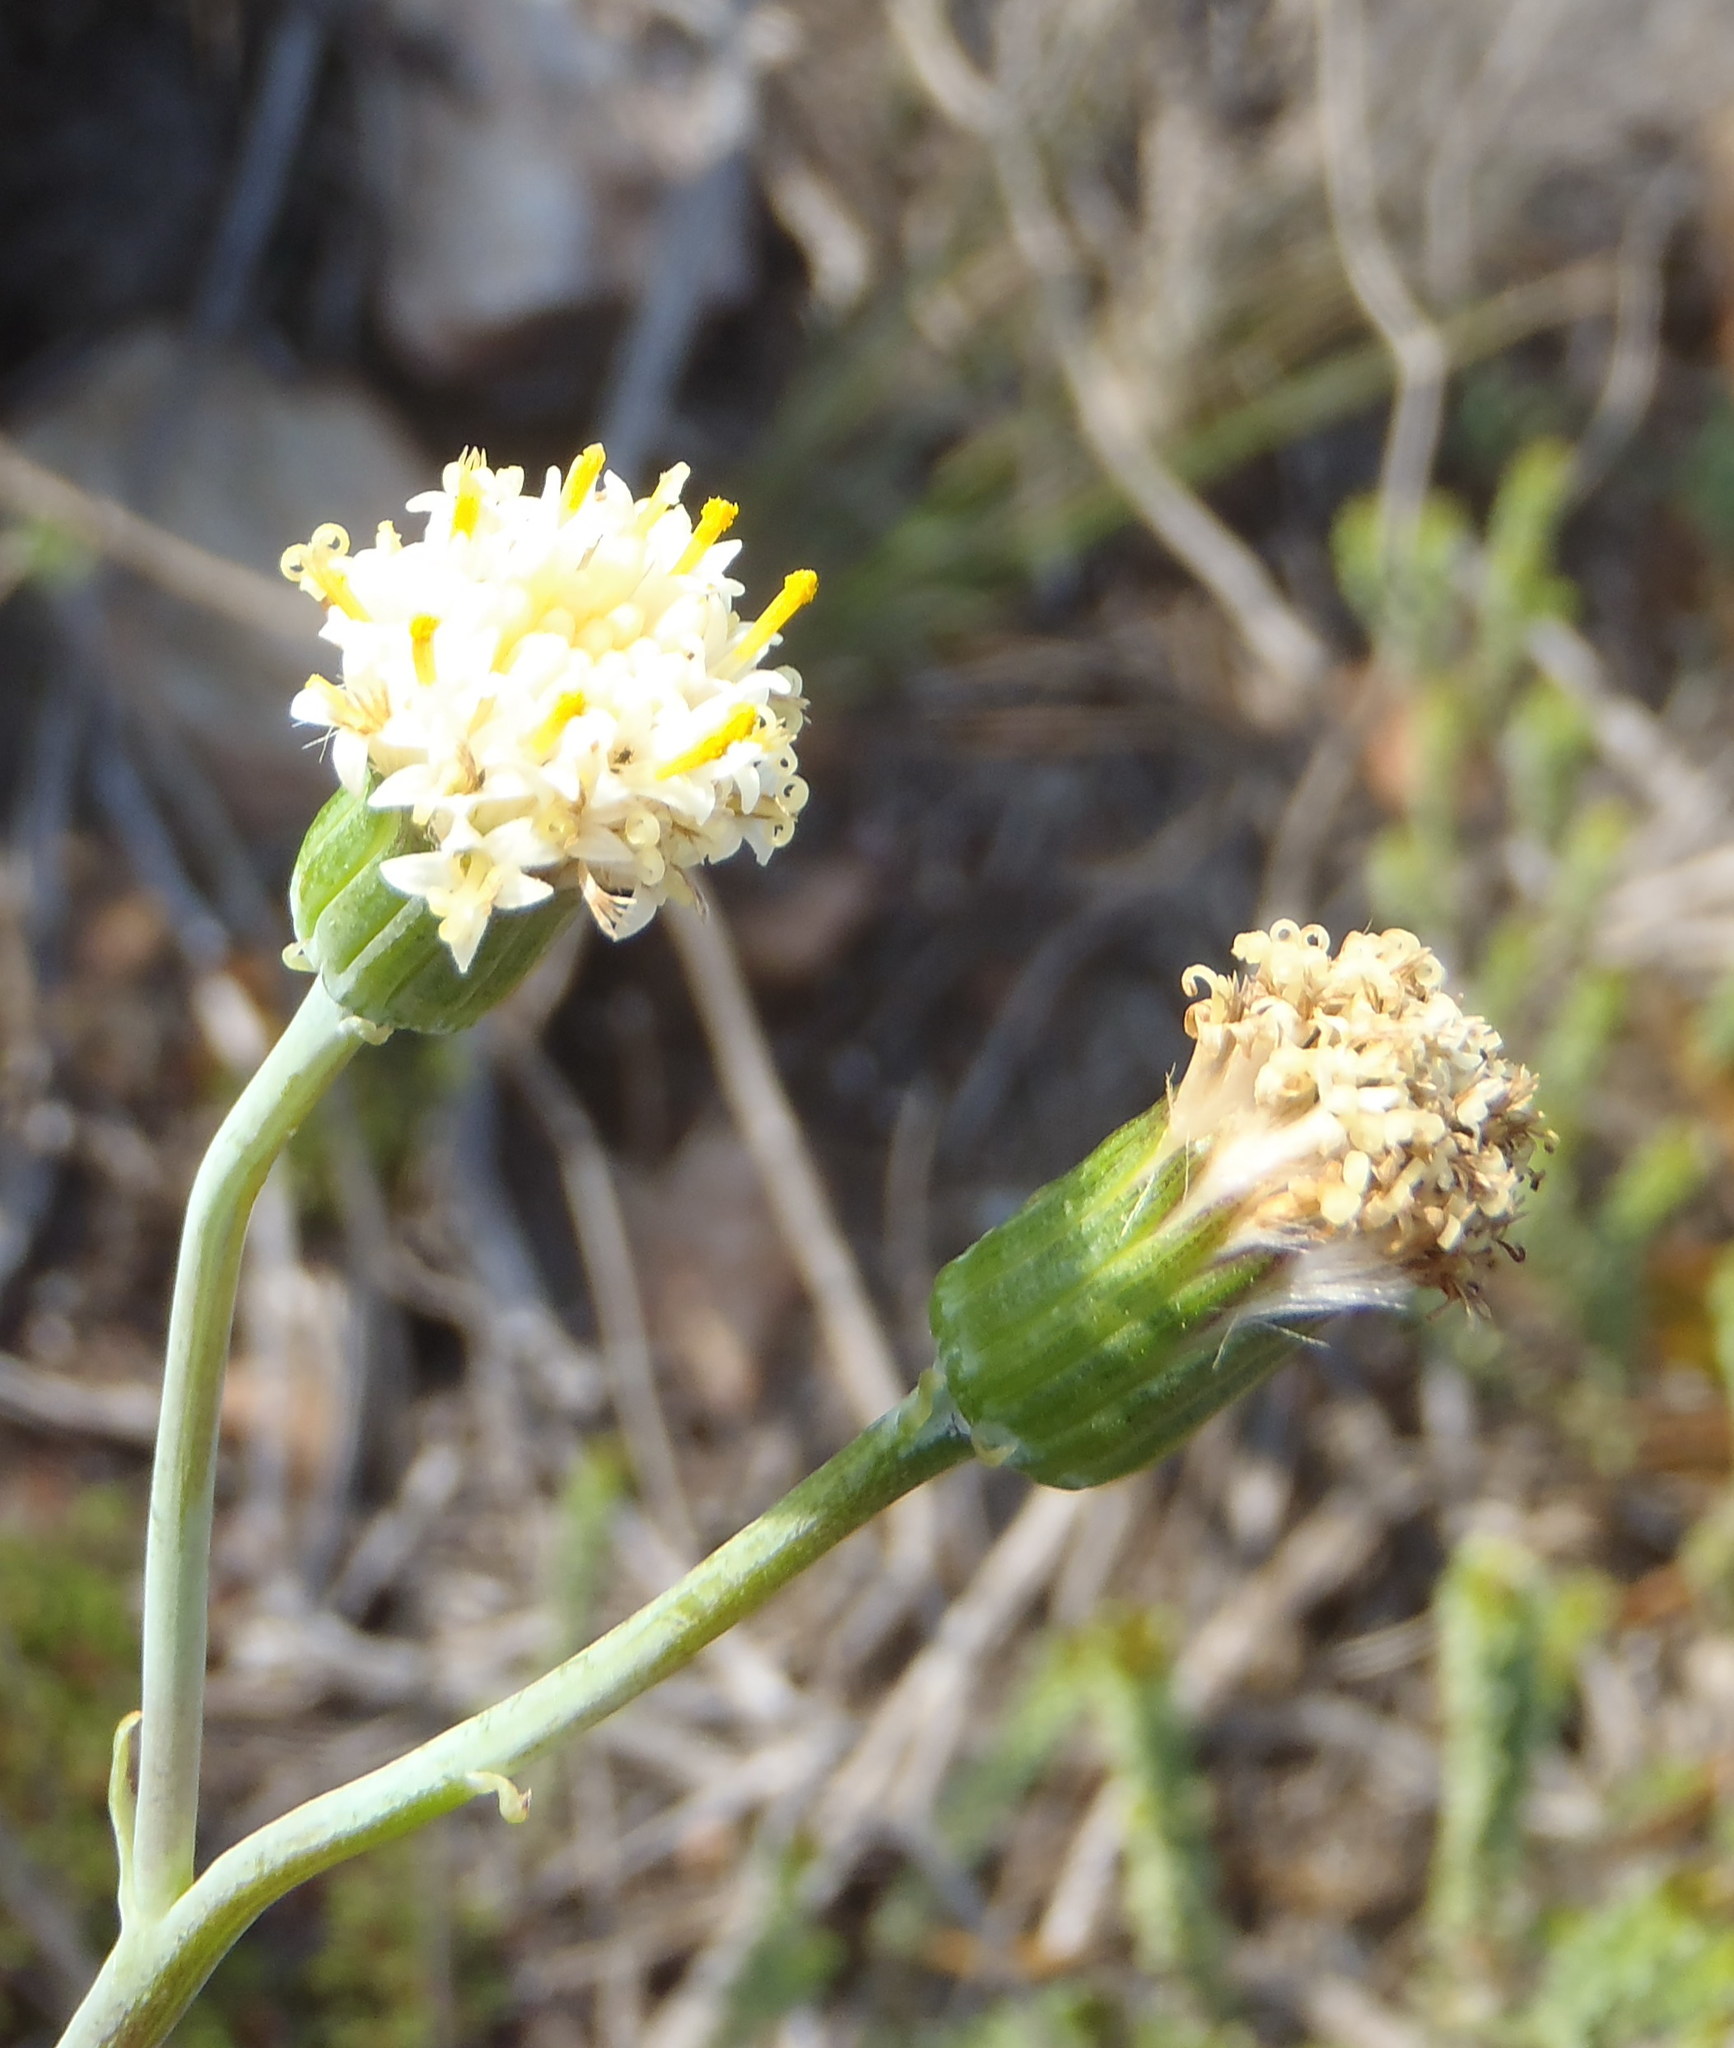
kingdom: Plantae
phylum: Tracheophyta
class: Magnoliopsida
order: Asterales
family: Asteraceae
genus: Curio
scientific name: Curio talinoides
